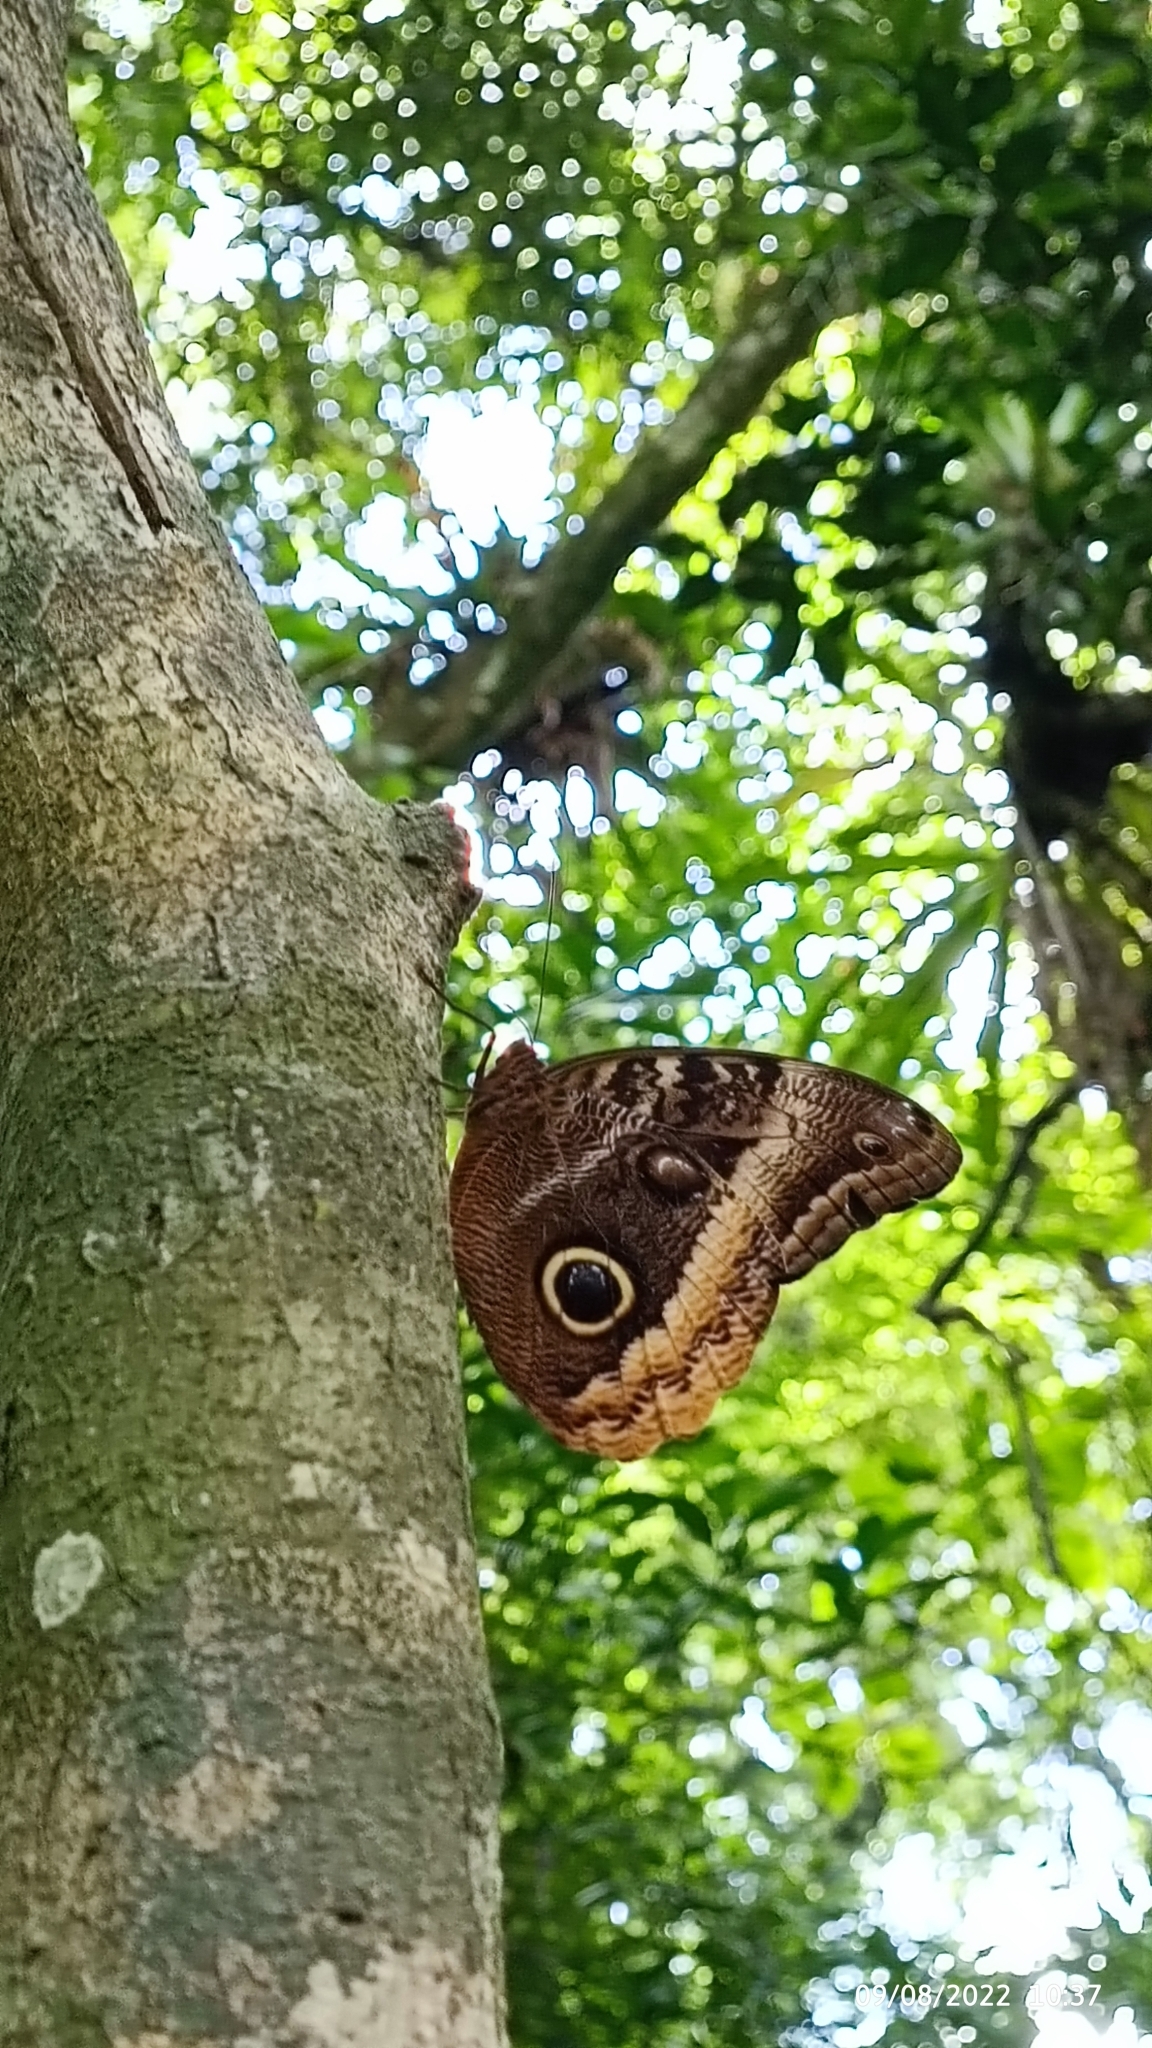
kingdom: Animalia
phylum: Arthropoda
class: Insecta
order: Lepidoptera
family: Nymphalidae
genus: Caligo
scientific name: Caligo uranus
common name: Gold-edged owl-butterfly
